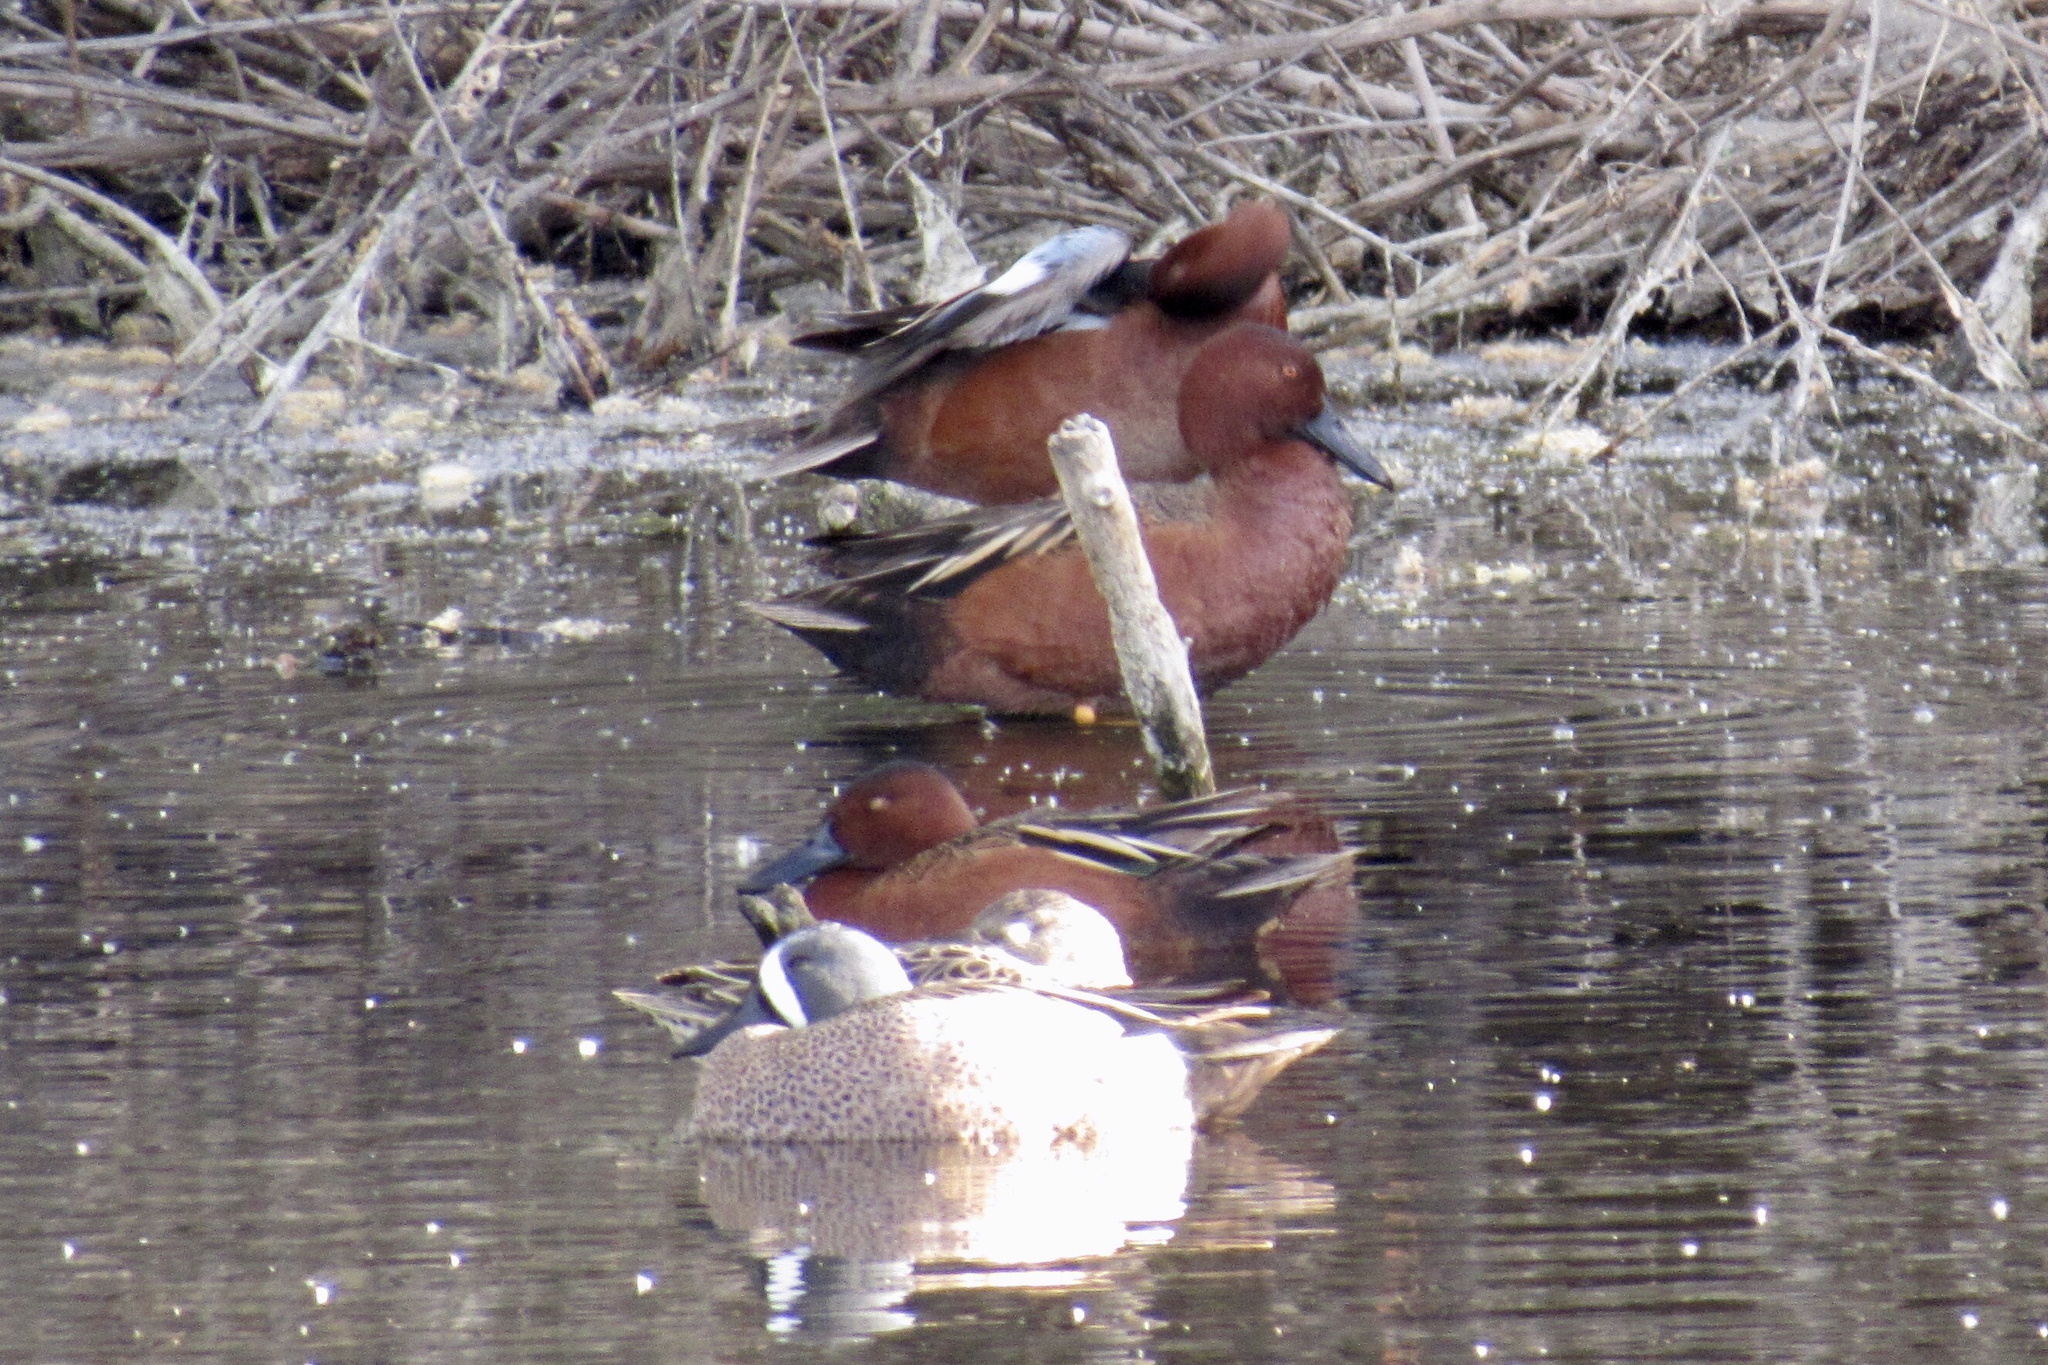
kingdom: Animalia
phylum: Chordata
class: Aves
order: Anseriformes
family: Anatidae
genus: Spatula
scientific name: Spatula cyanoptera
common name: Cinnamon teal
